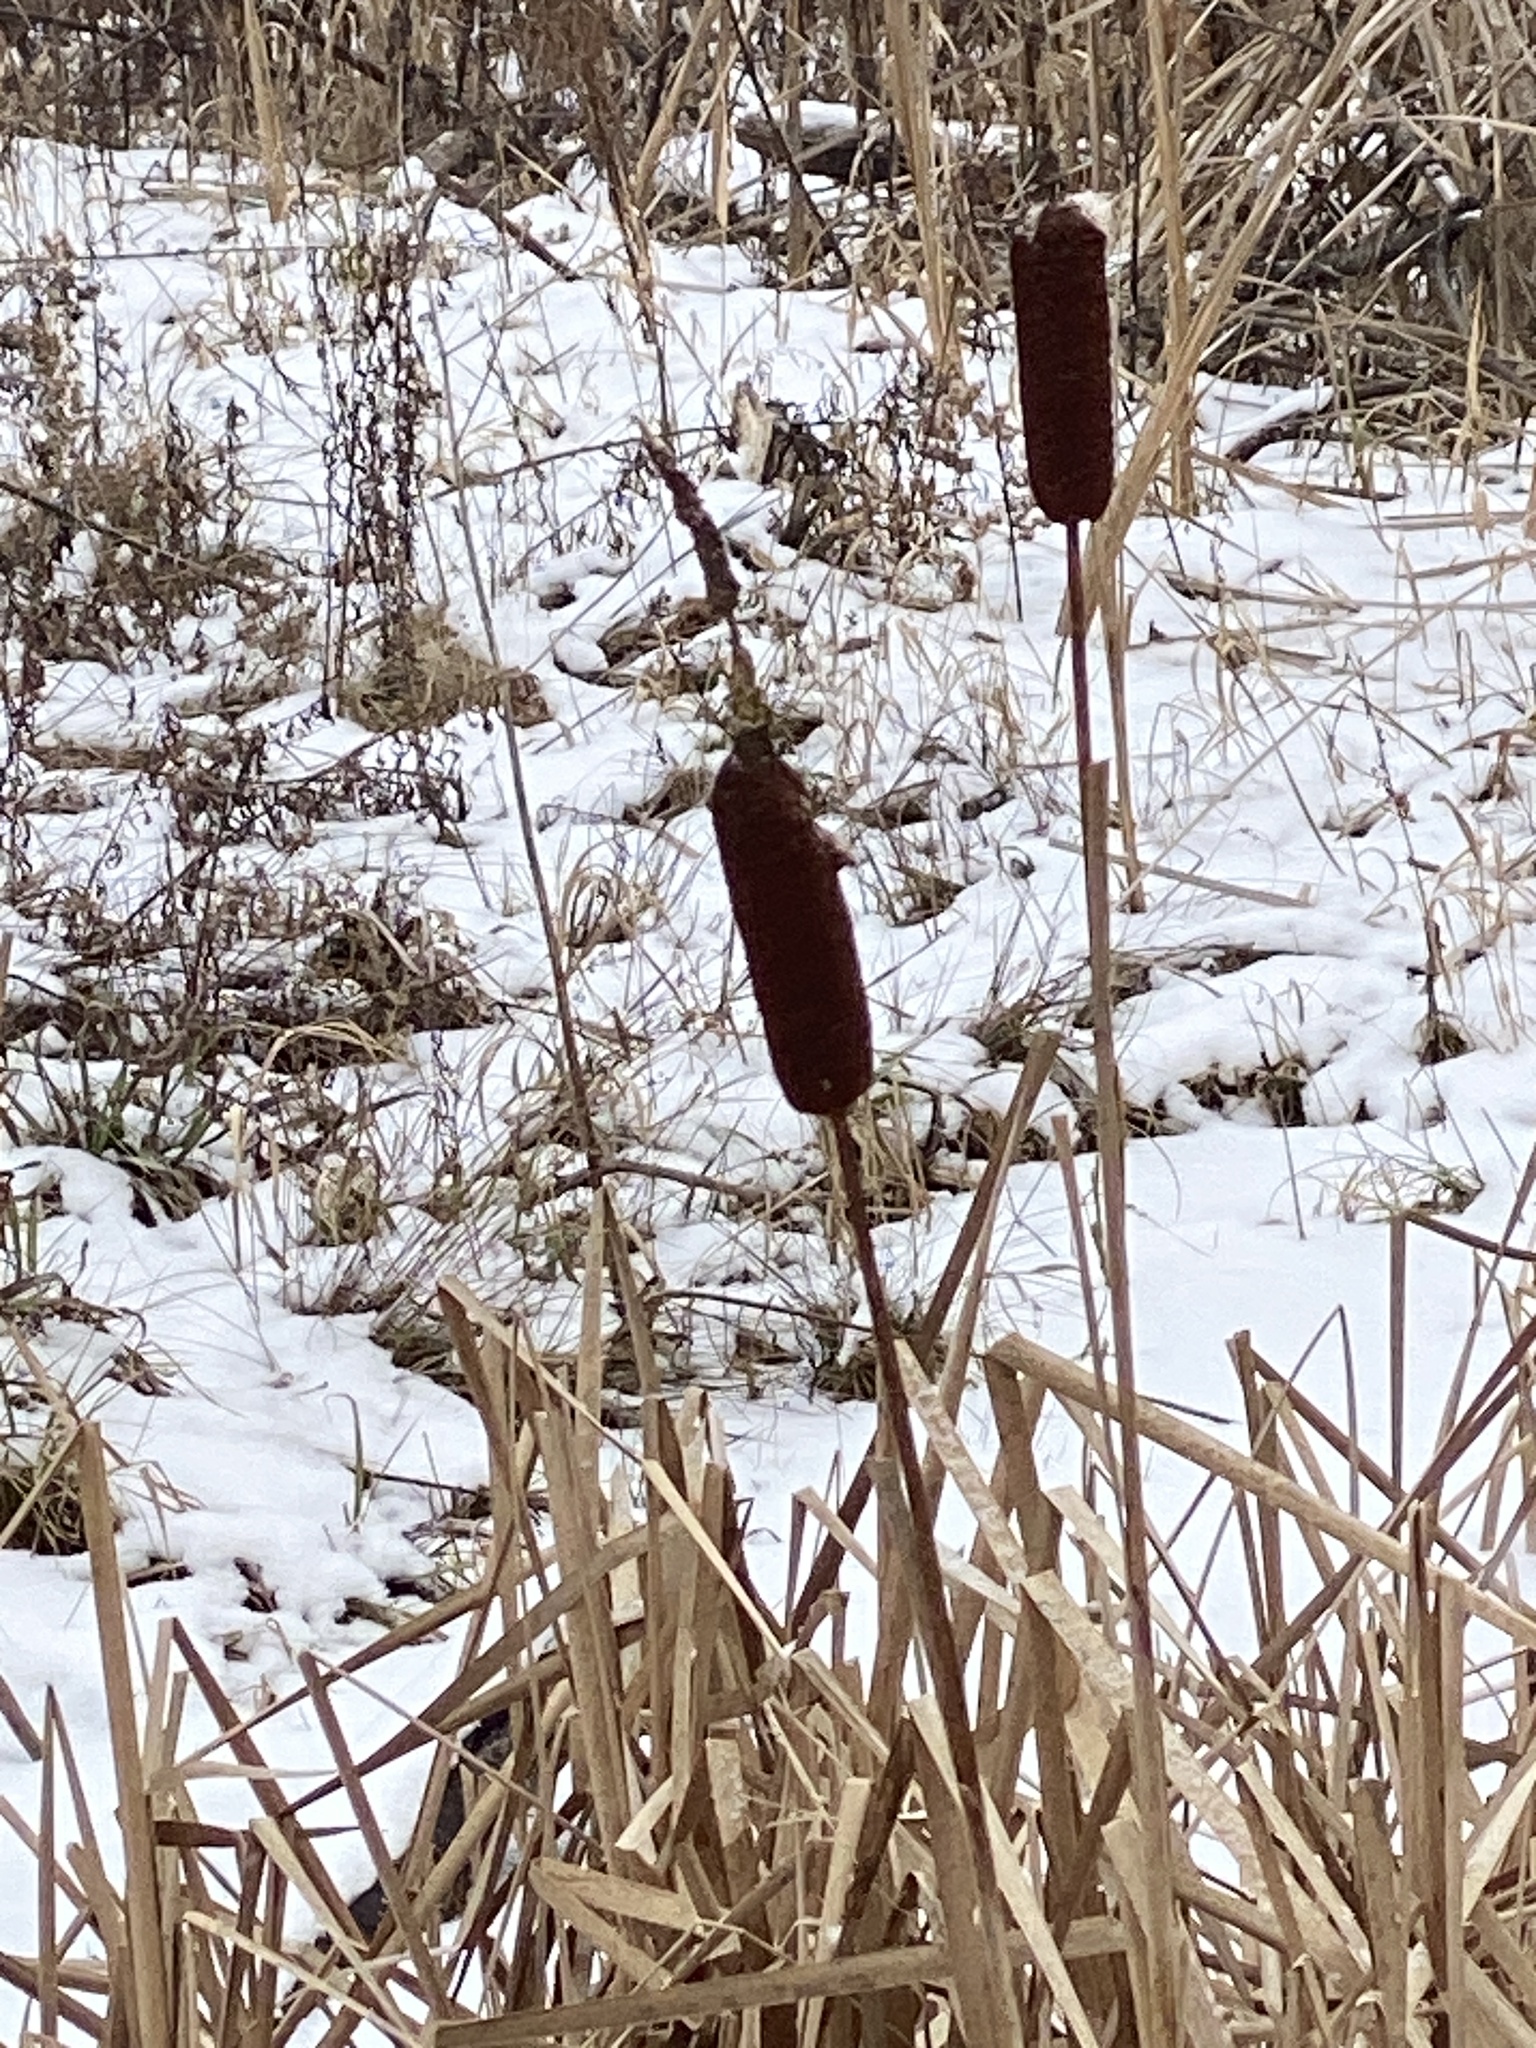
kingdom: Plantae
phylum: Tracheophyta
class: Liliopsida
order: Poales
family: Typhaceae
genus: Typha
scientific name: Typha latifolia
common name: Broadleaf cattail
